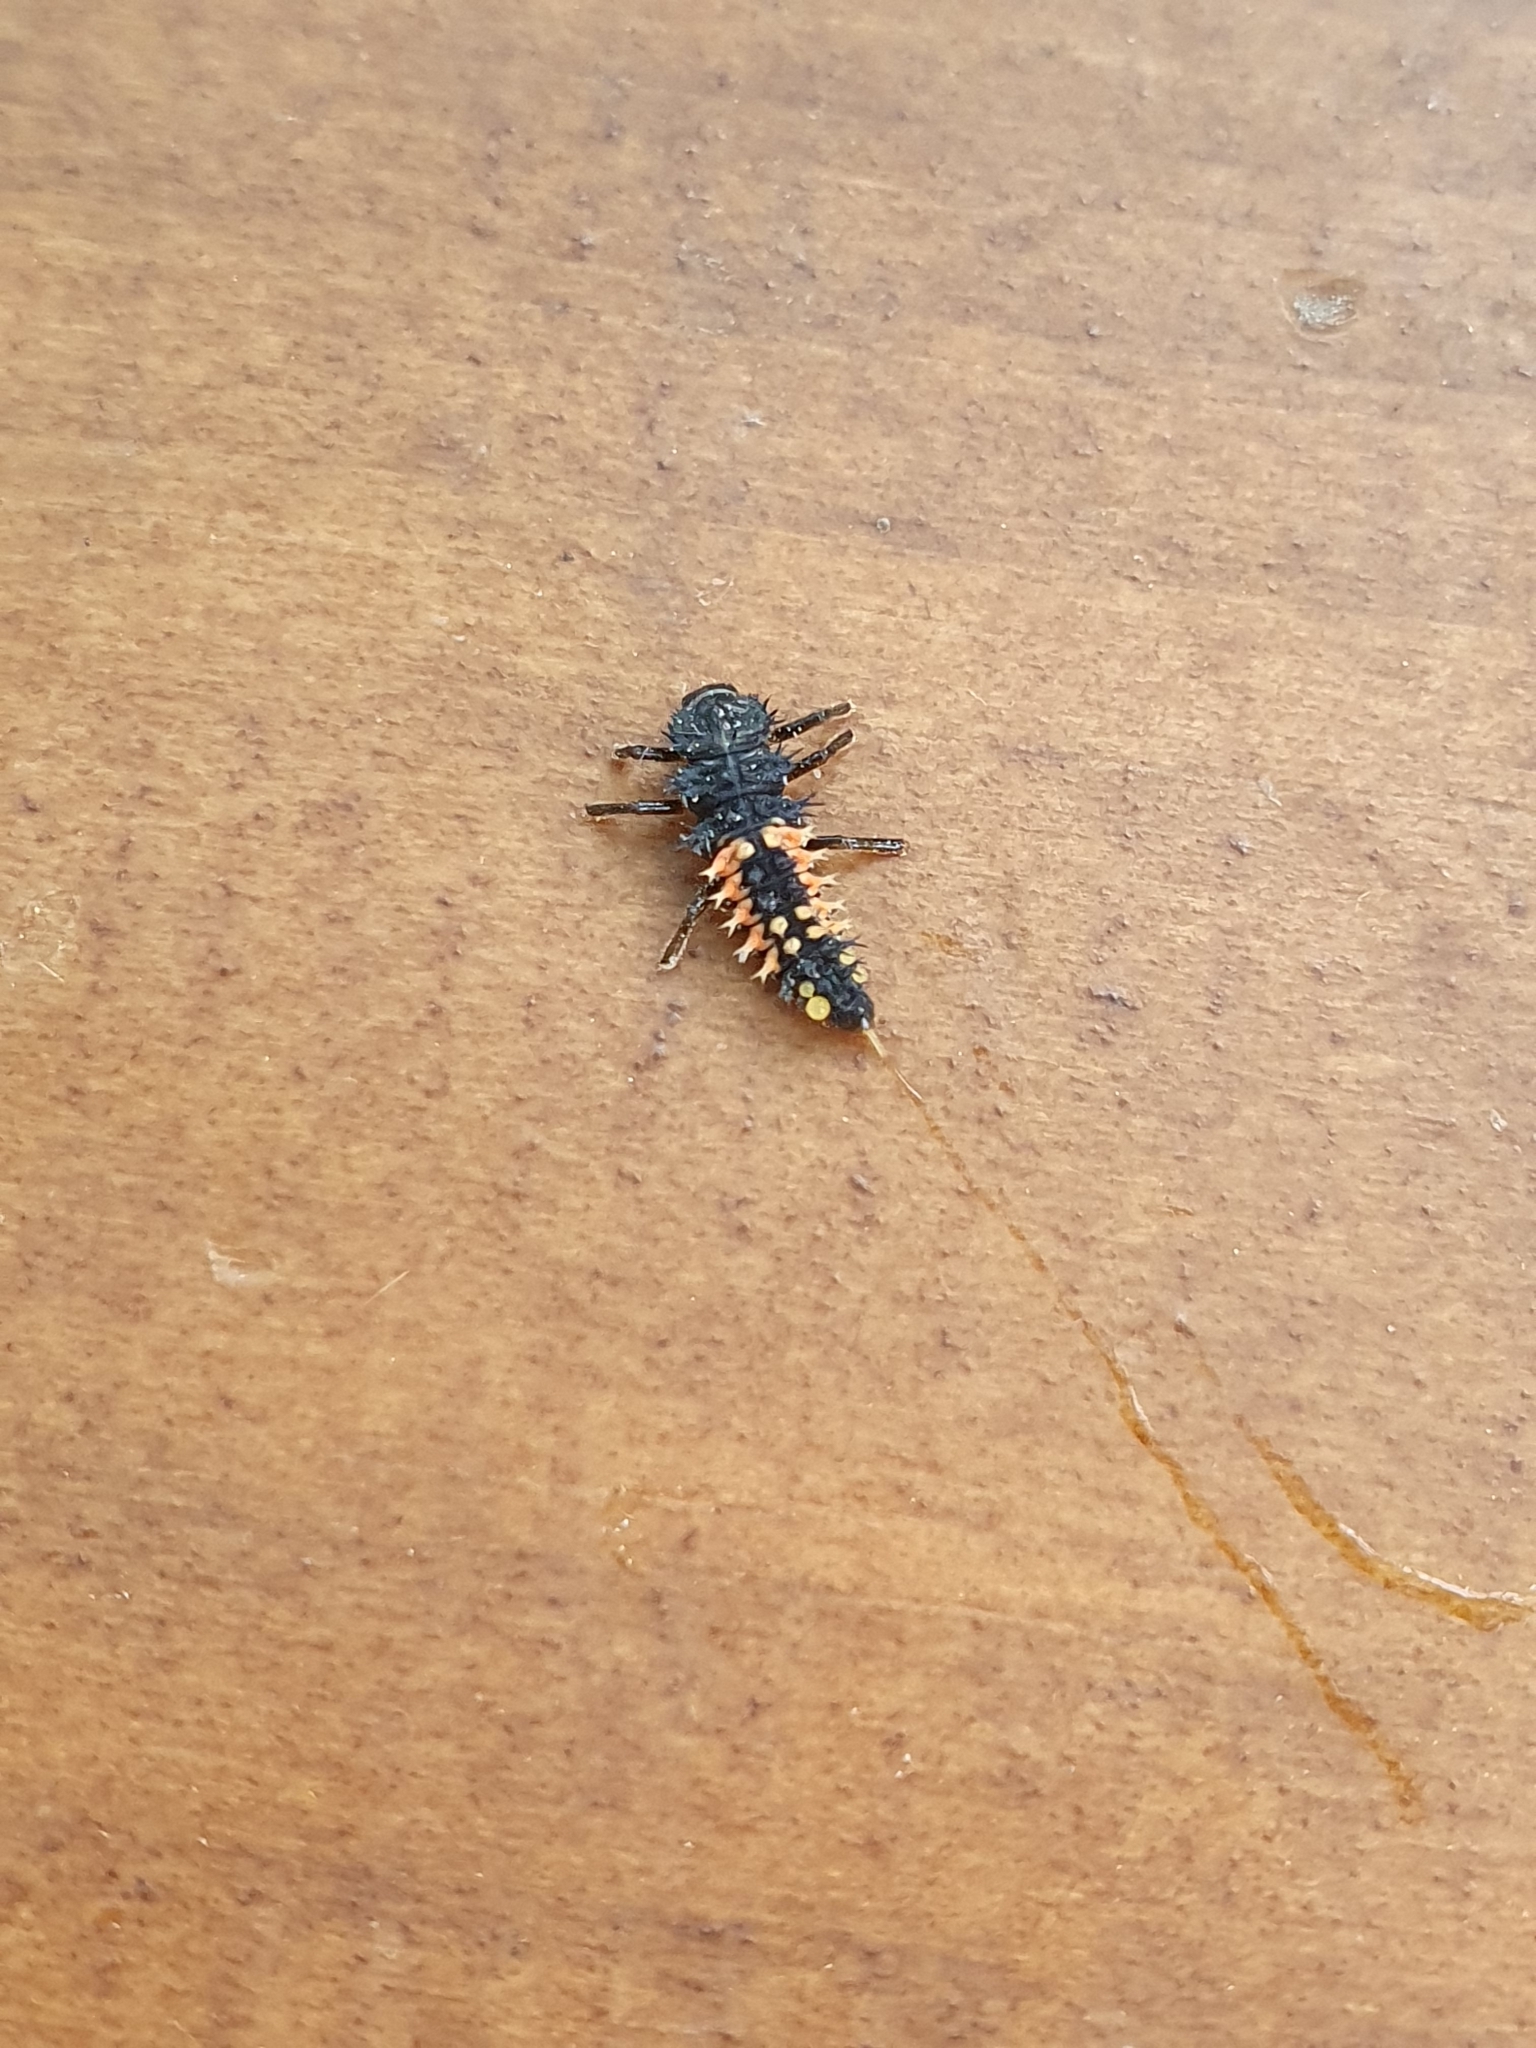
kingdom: Animalia
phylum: Arthropoda
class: Insecta
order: Coleoptera
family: Coccinellidae
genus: Harmonia
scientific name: Harmonia axyridis
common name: Harlequin ladybird
